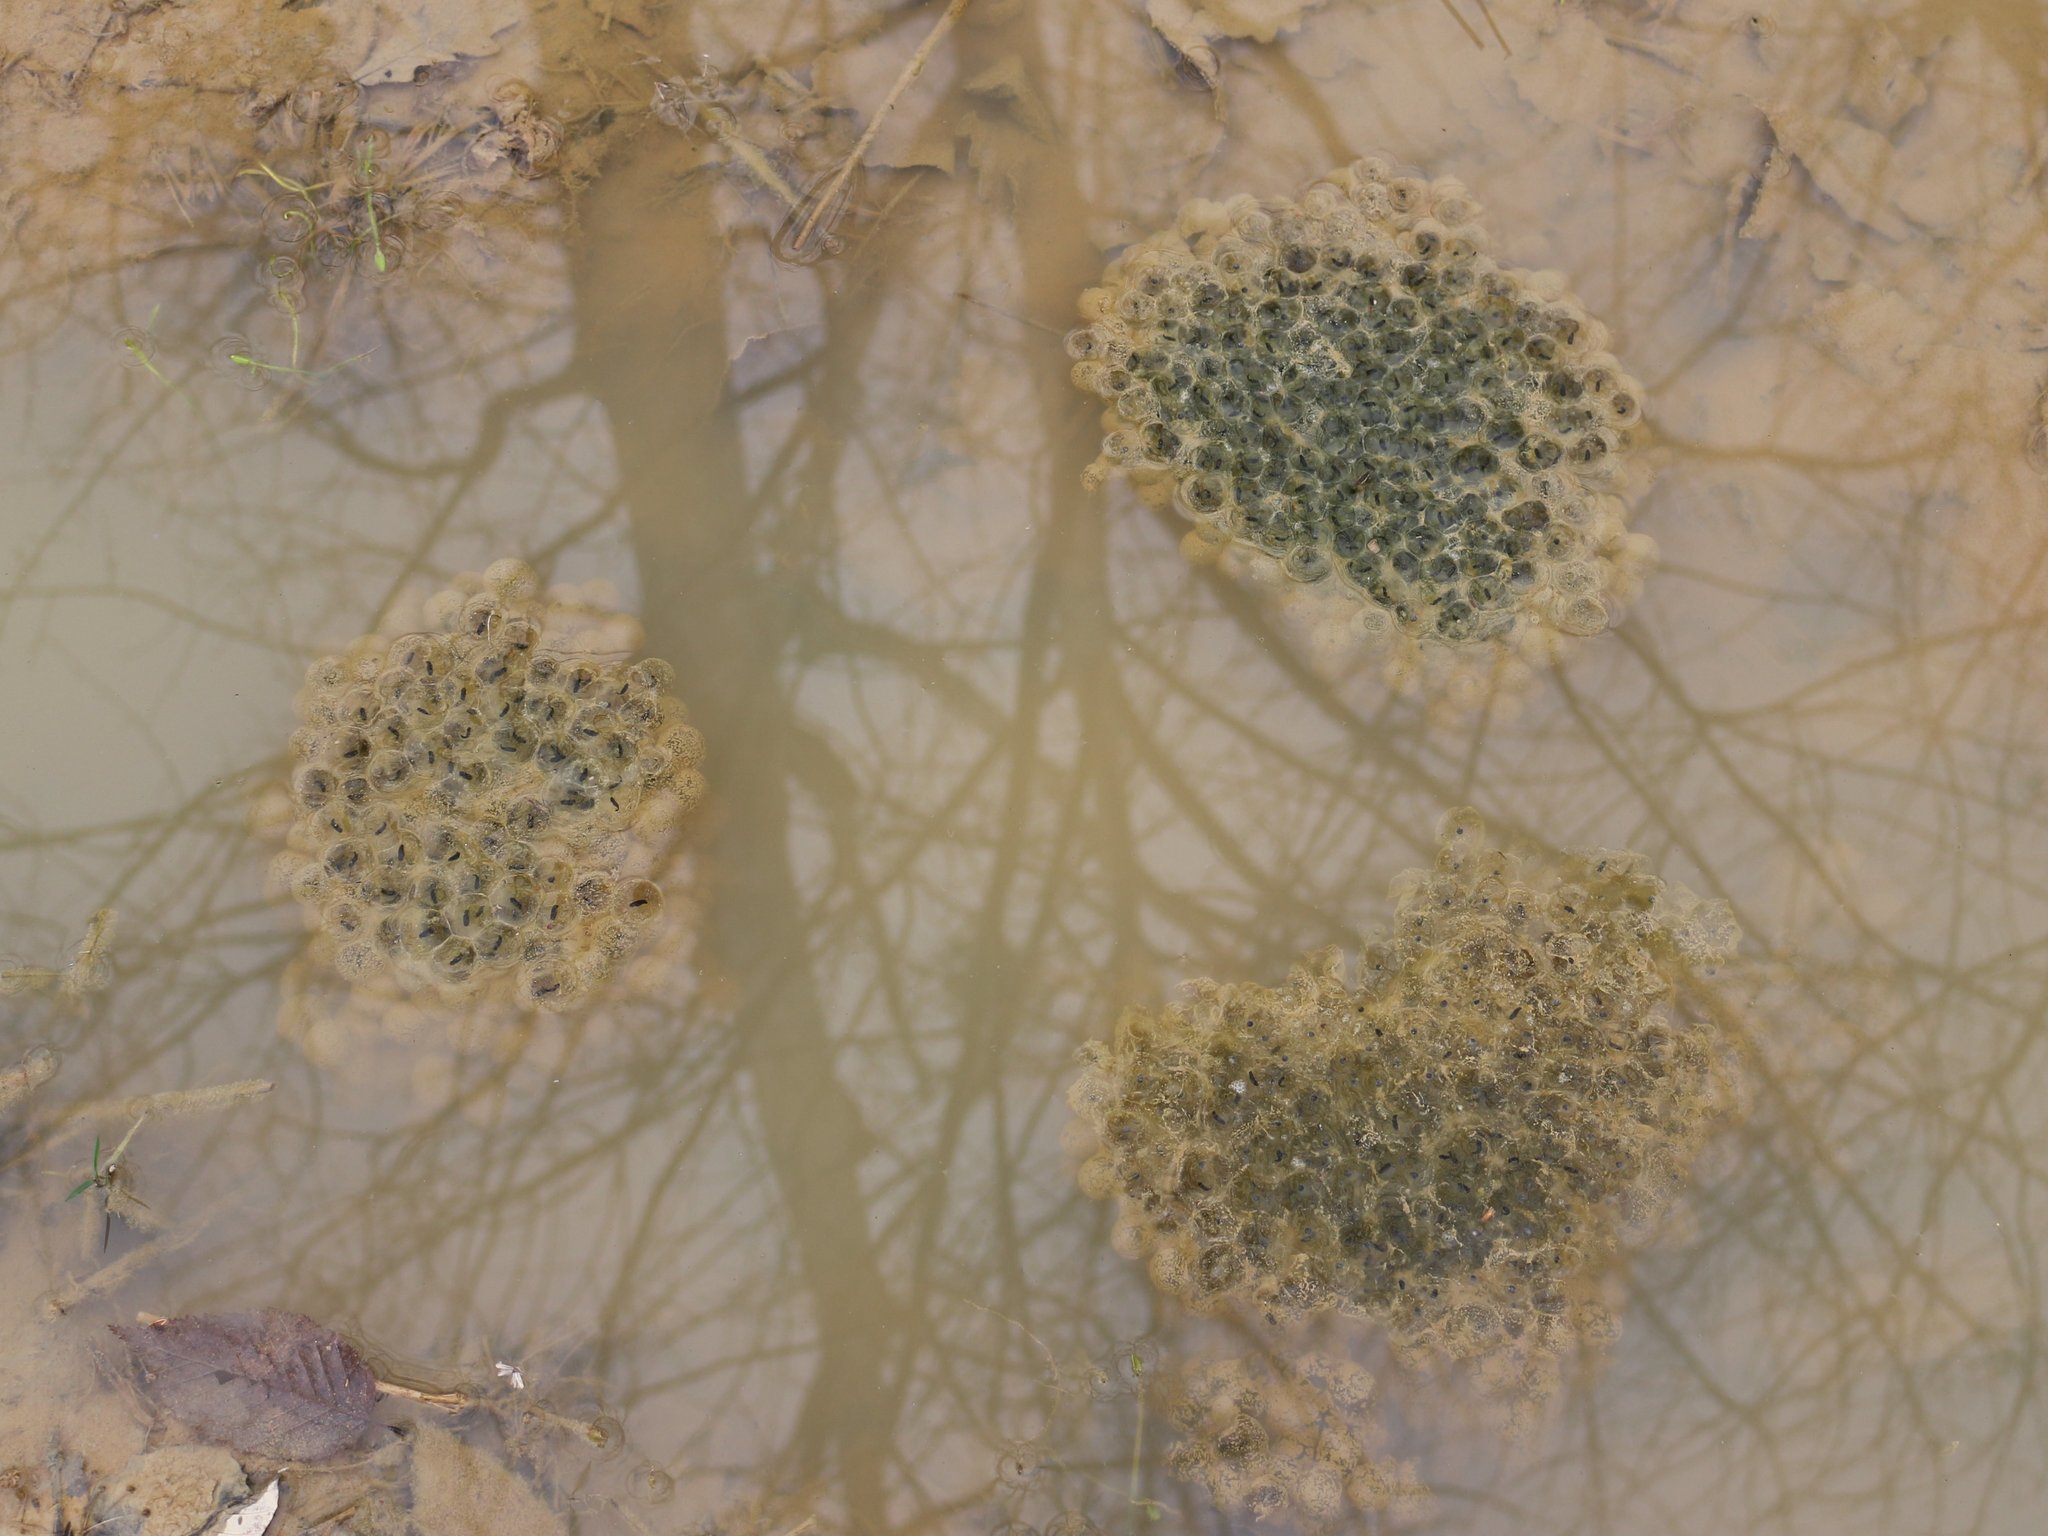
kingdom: Animalia
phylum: Chordata
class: Amphibia
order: Anura
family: Ranidae
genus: Rana
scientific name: Rana macrocnemis
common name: Banded frog
